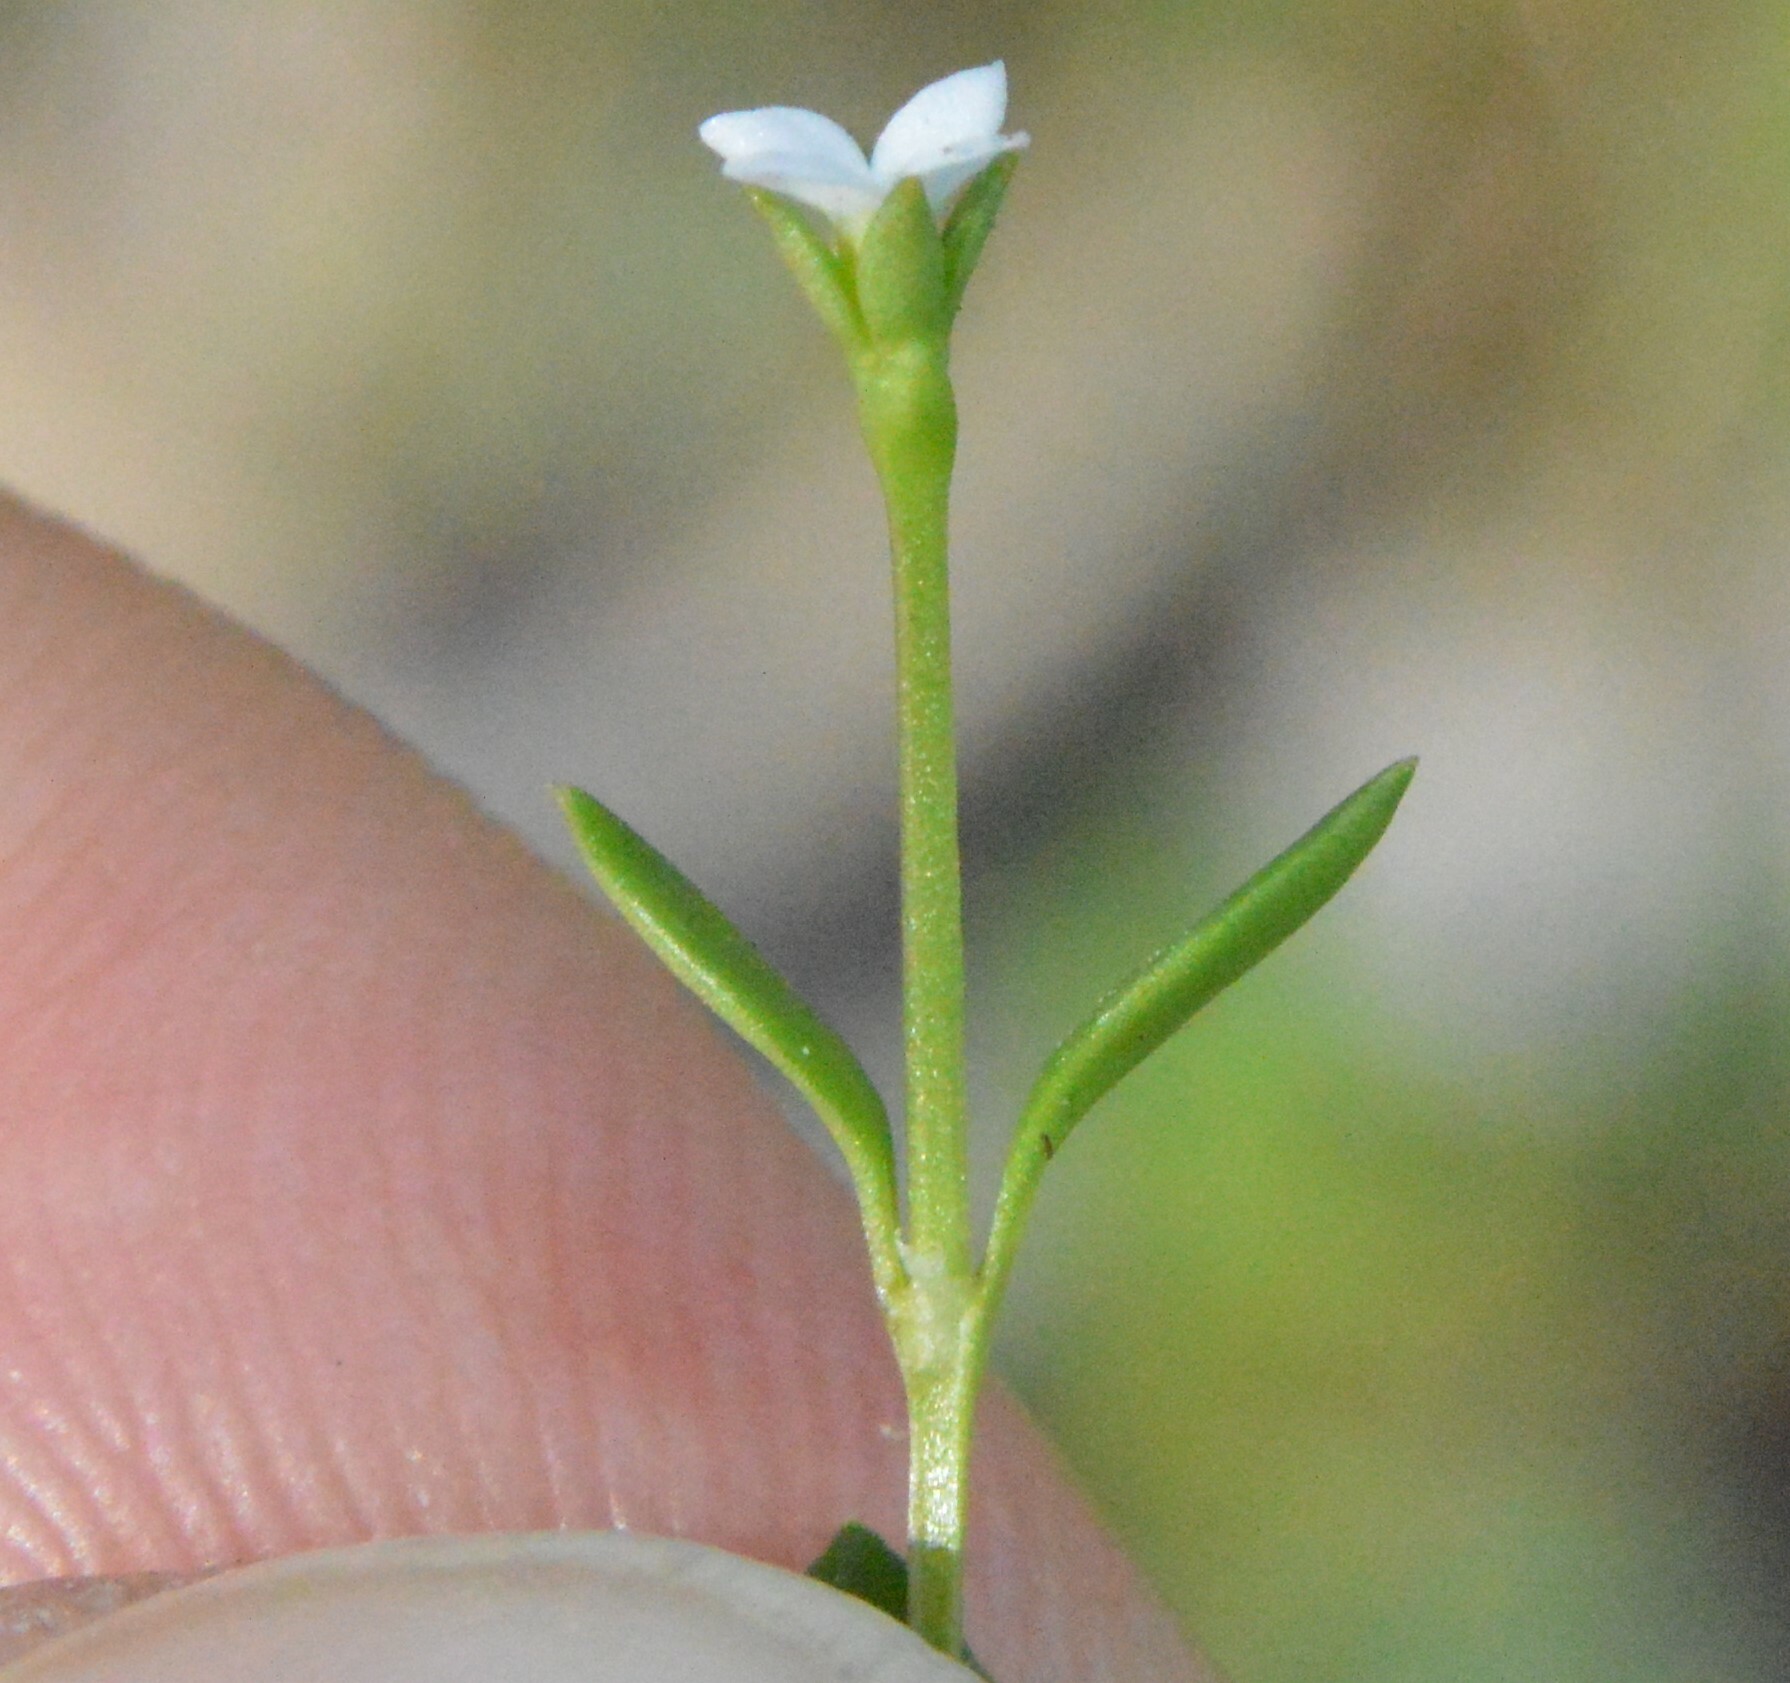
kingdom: Plantae
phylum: Tracheophyta
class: Magnoliopsida
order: Gentianales
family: Rubiaceae
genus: Houstonia
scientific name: Houstonia micrantha
